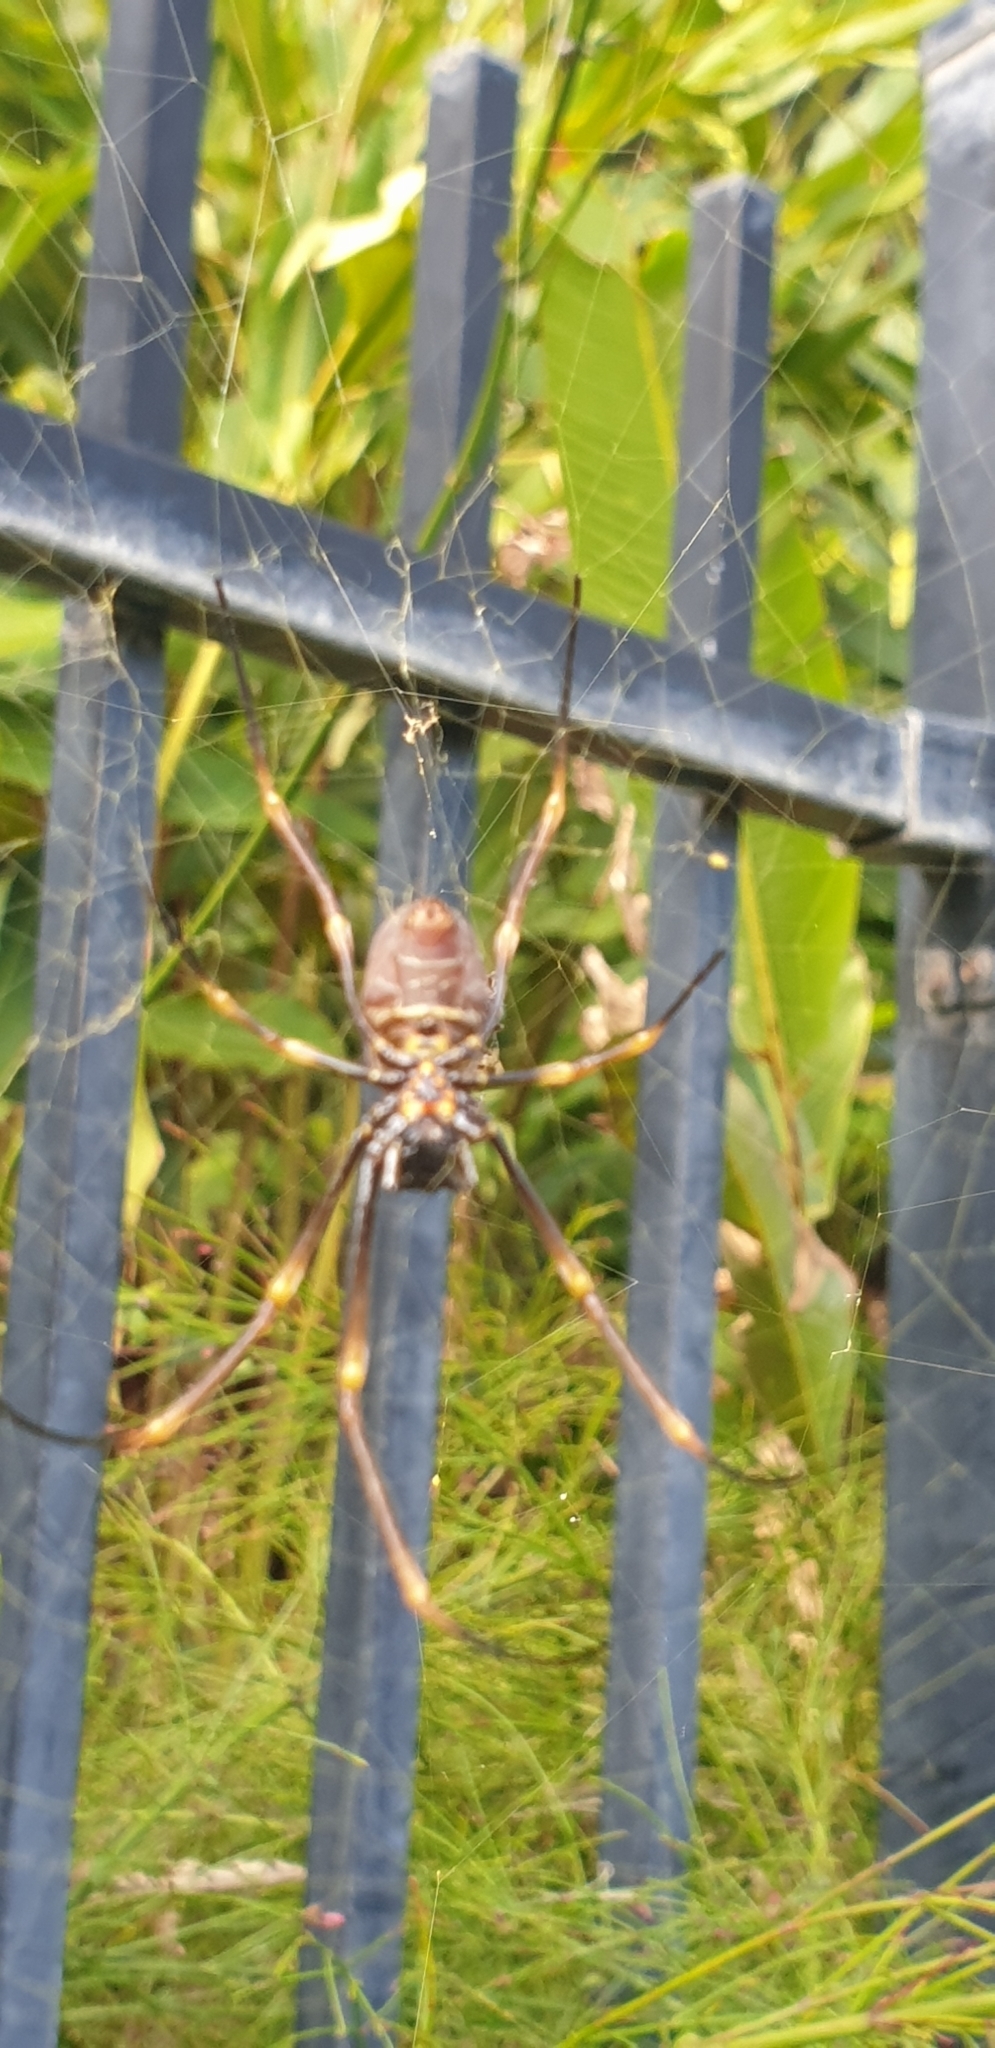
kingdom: Animalia
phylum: Arthropoda
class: Arachnida
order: Araneae
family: Araneidae
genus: Trichonephila
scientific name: Trichonephila plumipes
